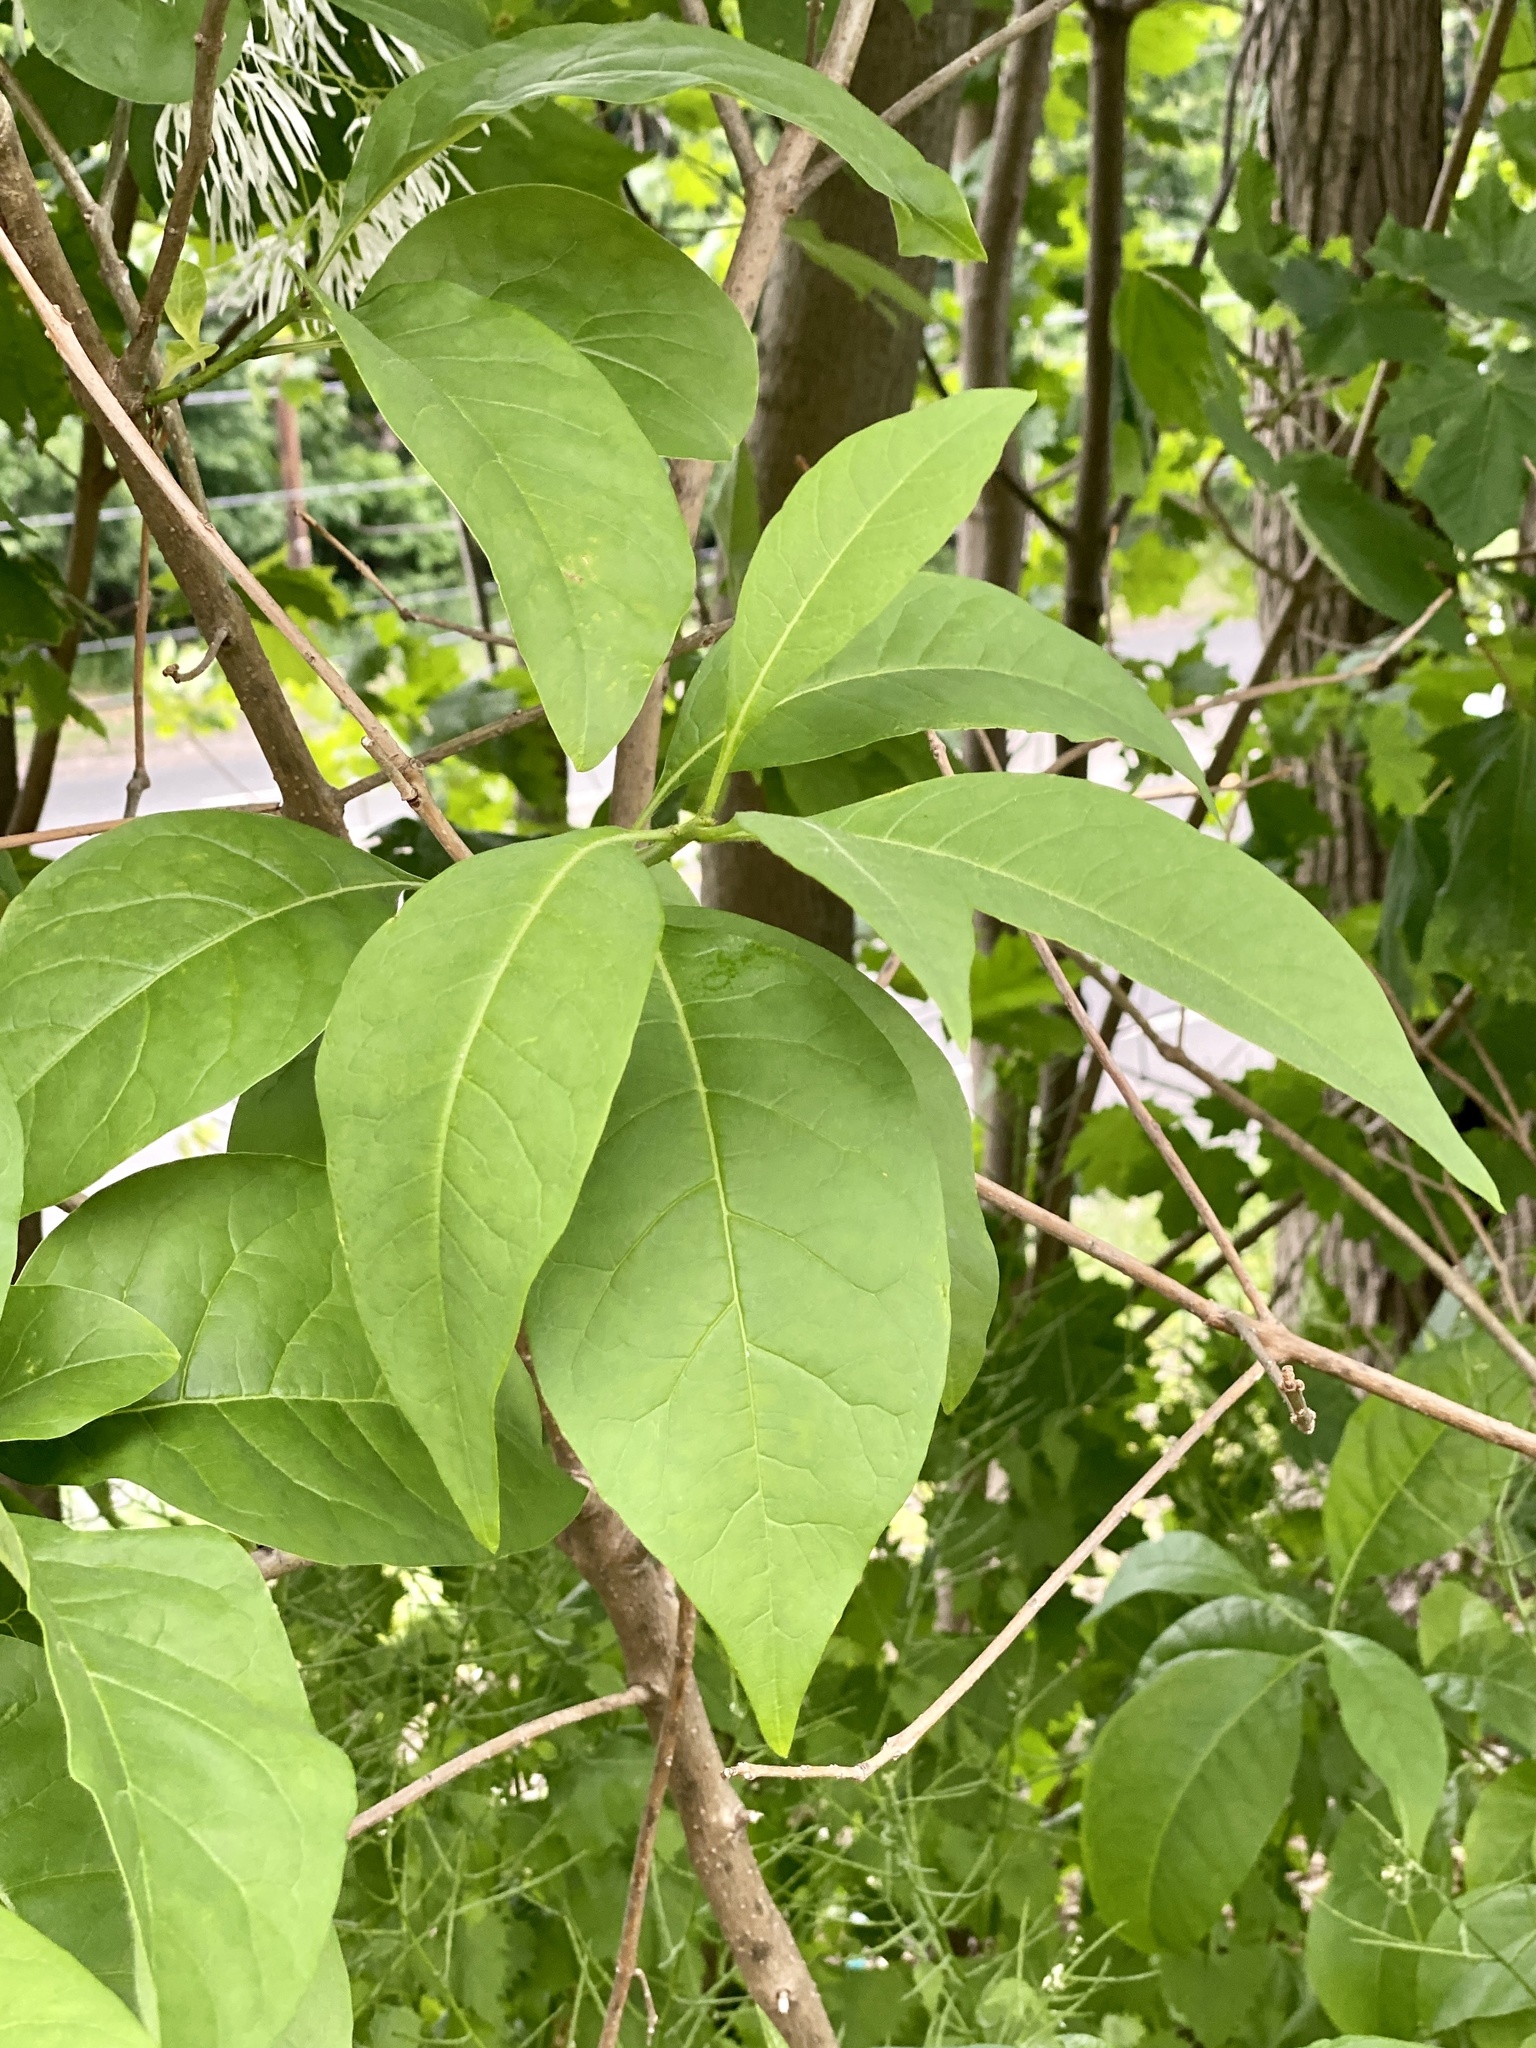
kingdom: Plantae
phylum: Tracheophyta
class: Magnoliopsida
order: Lamiales
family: Oleaceae
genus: Chionanthus
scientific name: Chionanthus virginicus
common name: American fringetree
